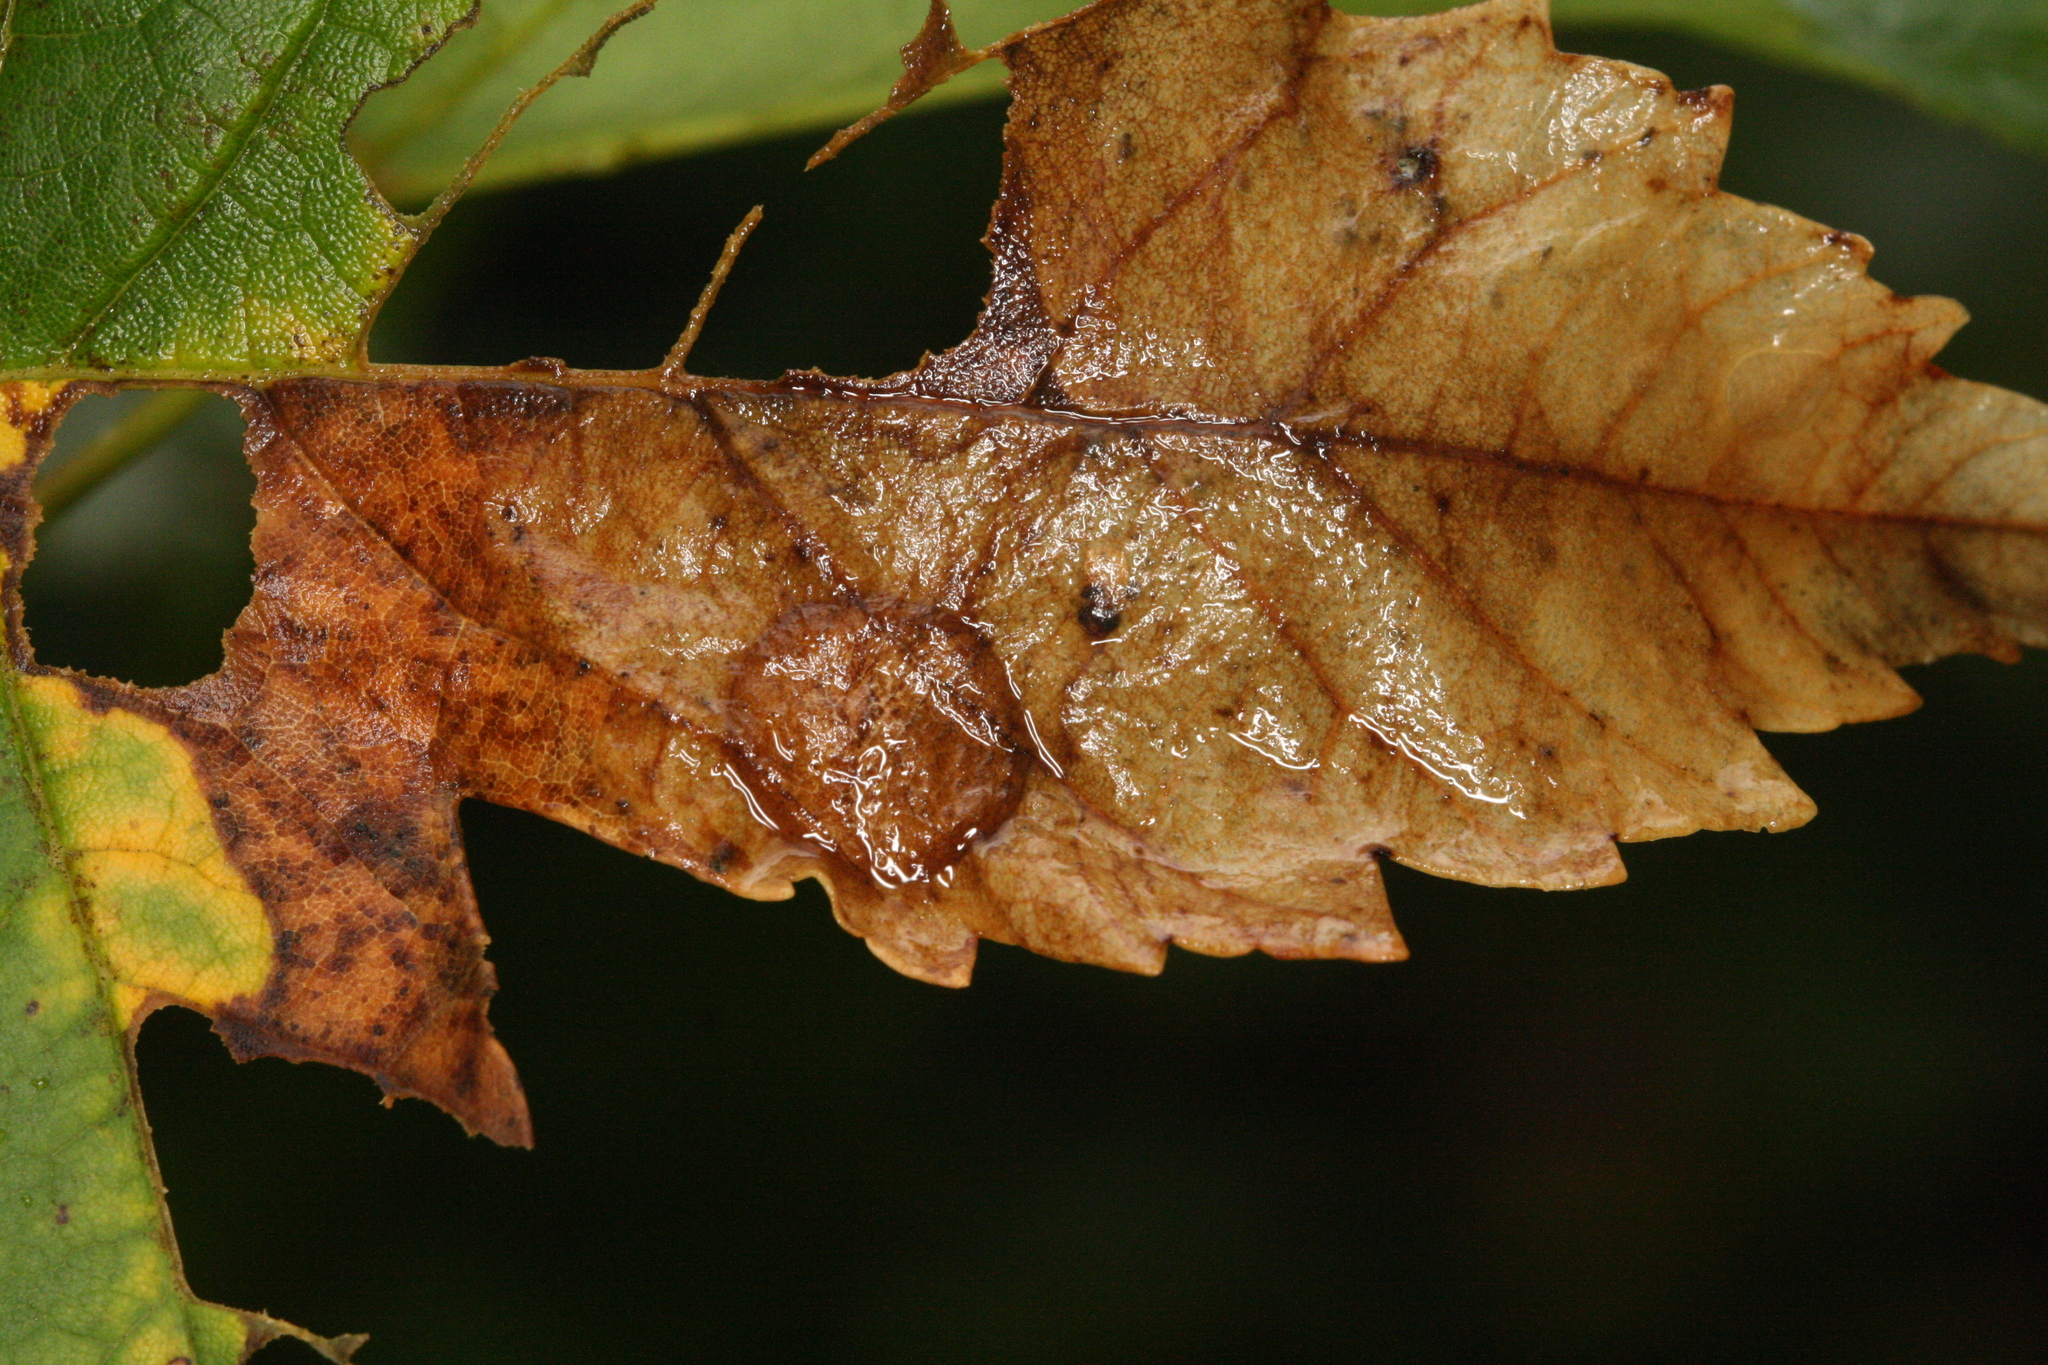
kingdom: Animalia
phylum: Arthropoda
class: Insecta
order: Hymenoptera
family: Tenthredinidae
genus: Heterarthrus
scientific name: Heterarthrus leucomela
